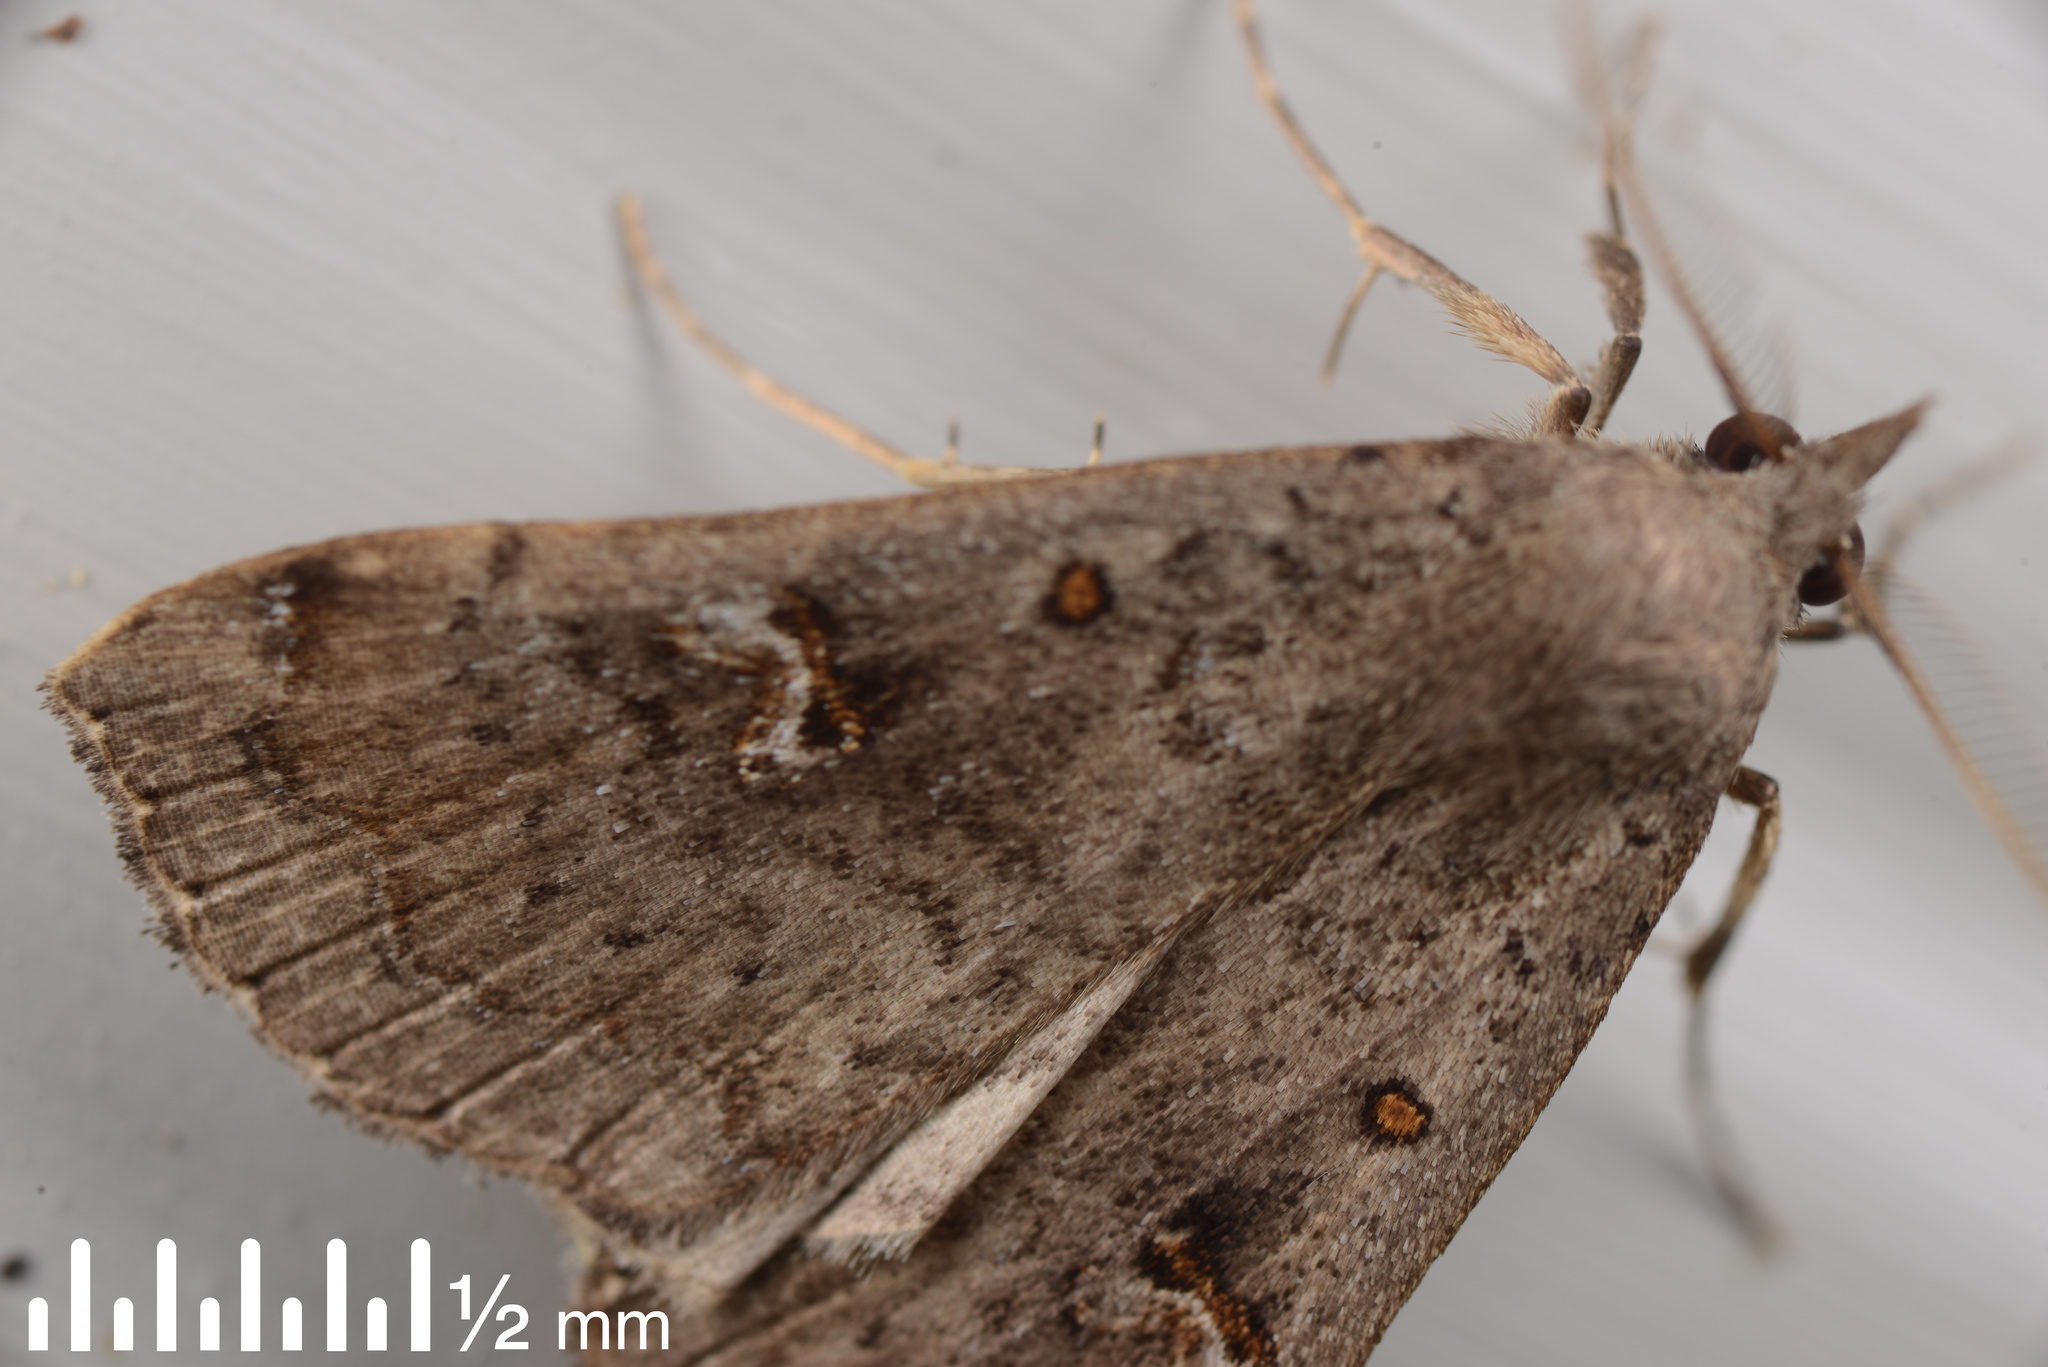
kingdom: Animalia
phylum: Arthropoda
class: Insecta
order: Lepidoptera
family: Erebidae
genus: Rhapsa
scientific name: Rhapsa scotosialis
